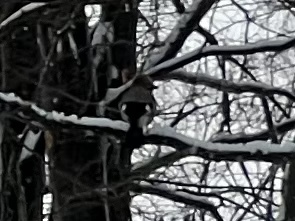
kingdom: Animalia
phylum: Chordata
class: Aves
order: Passeriformes
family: Corvidae
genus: Garrulus
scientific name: Garrulus glandarius
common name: Eurasian jay
